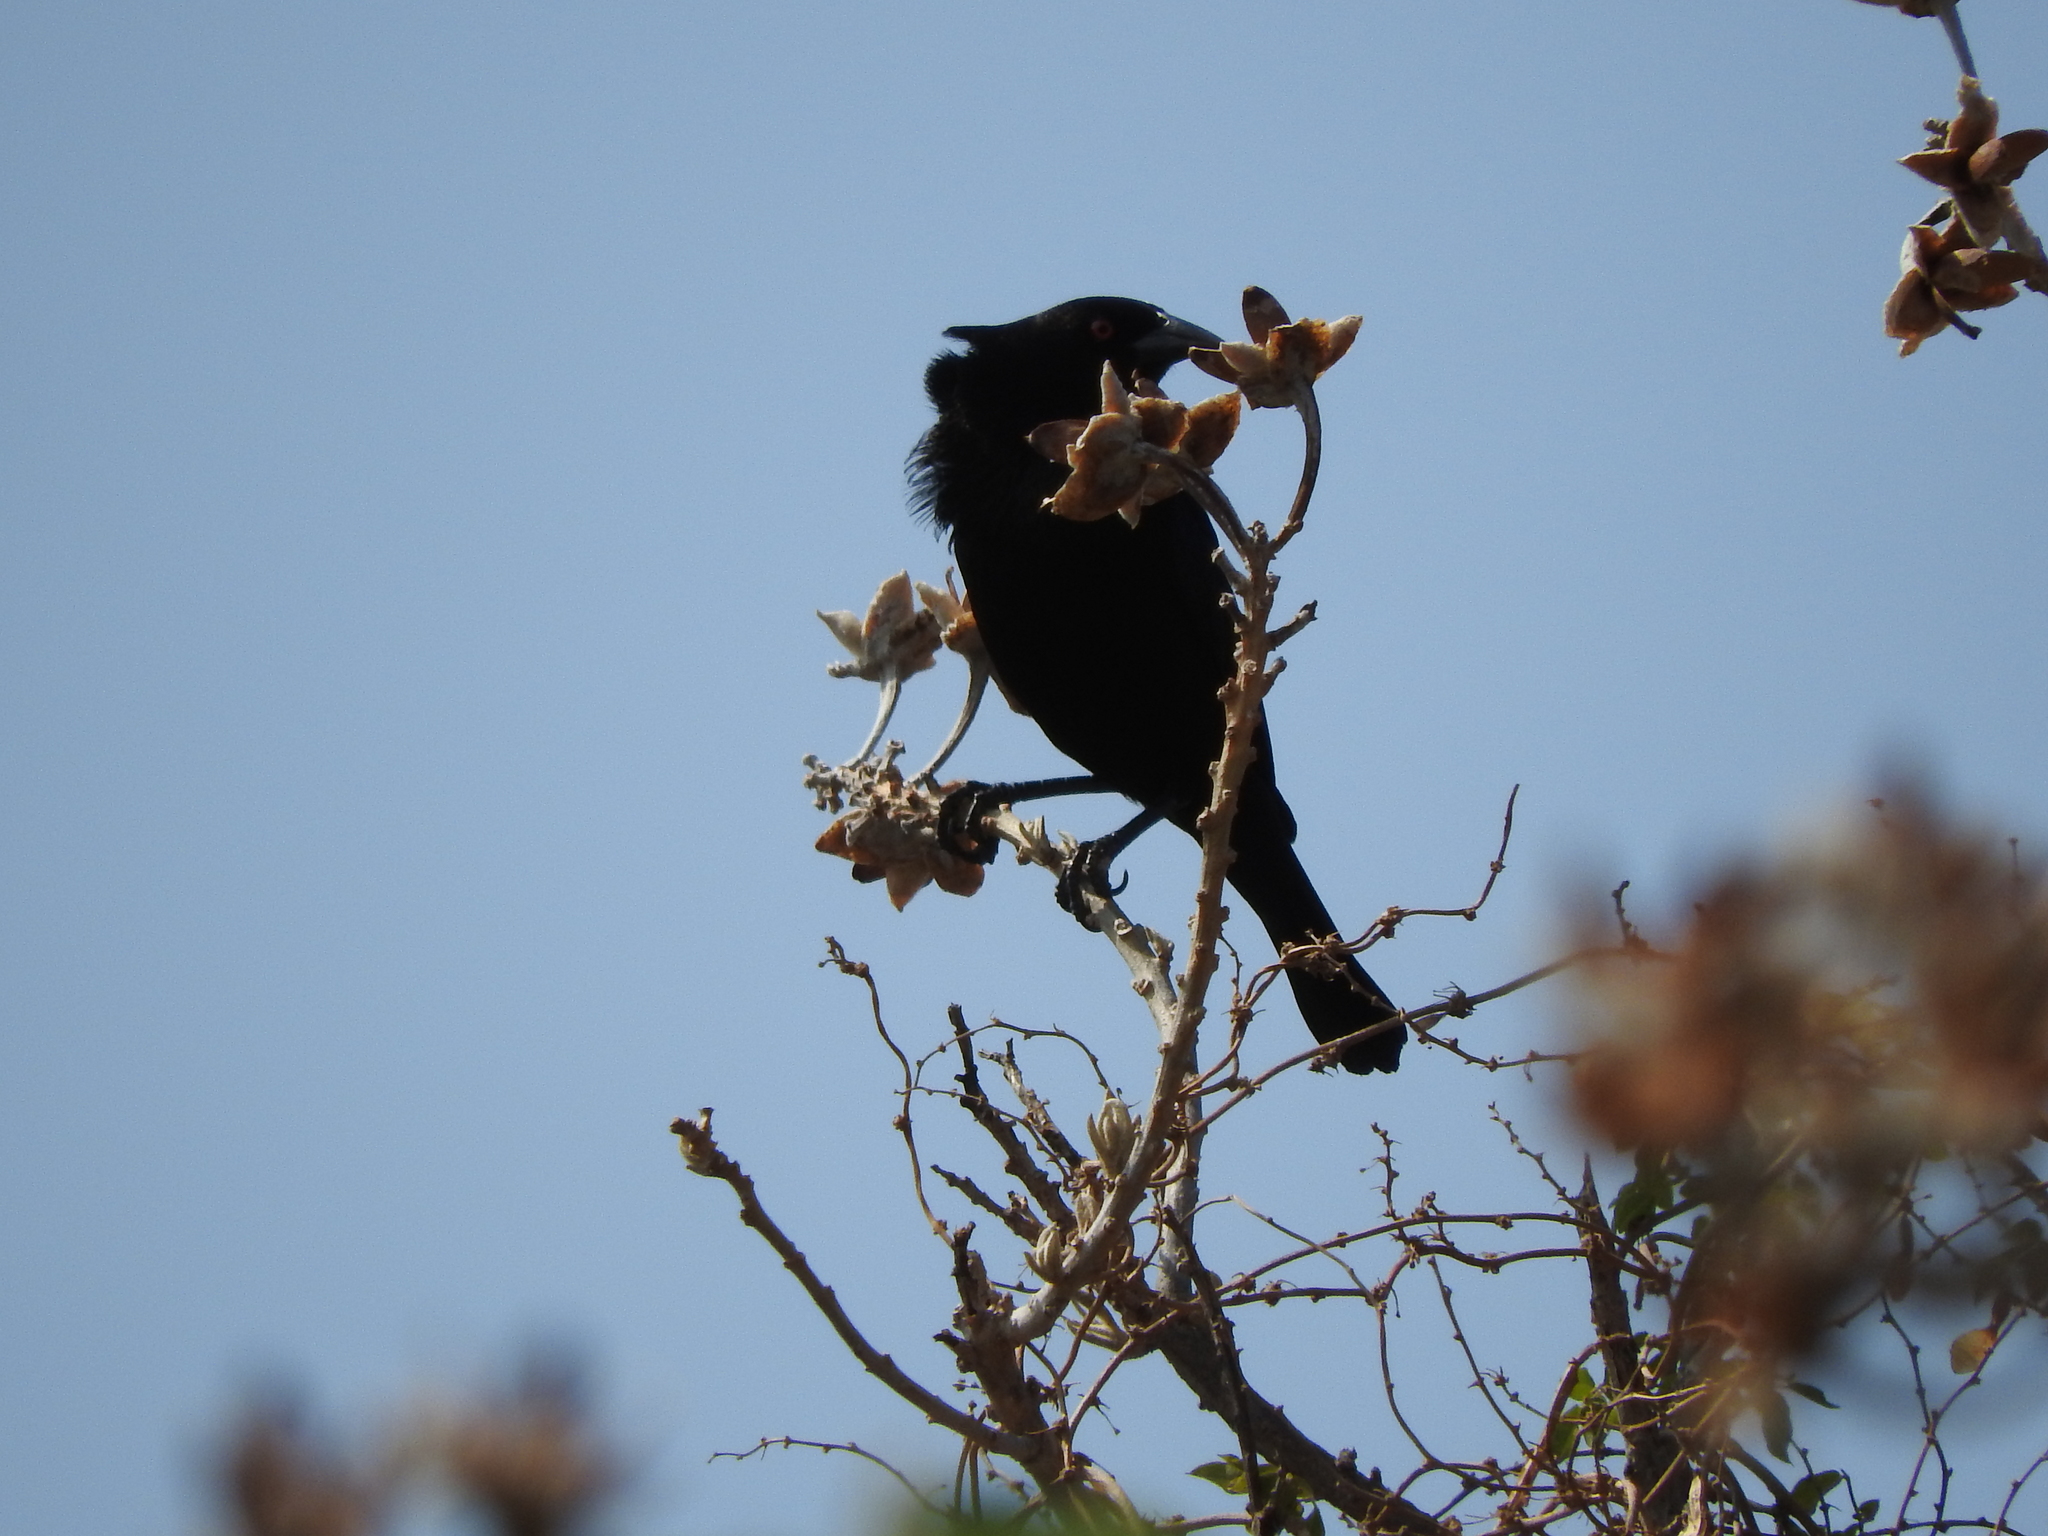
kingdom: Animalia
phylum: Chordata
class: Aves
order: Passeriformes
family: Icteridae
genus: Molothrus
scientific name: Molothrus aeneus
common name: Bronzed cowbird
